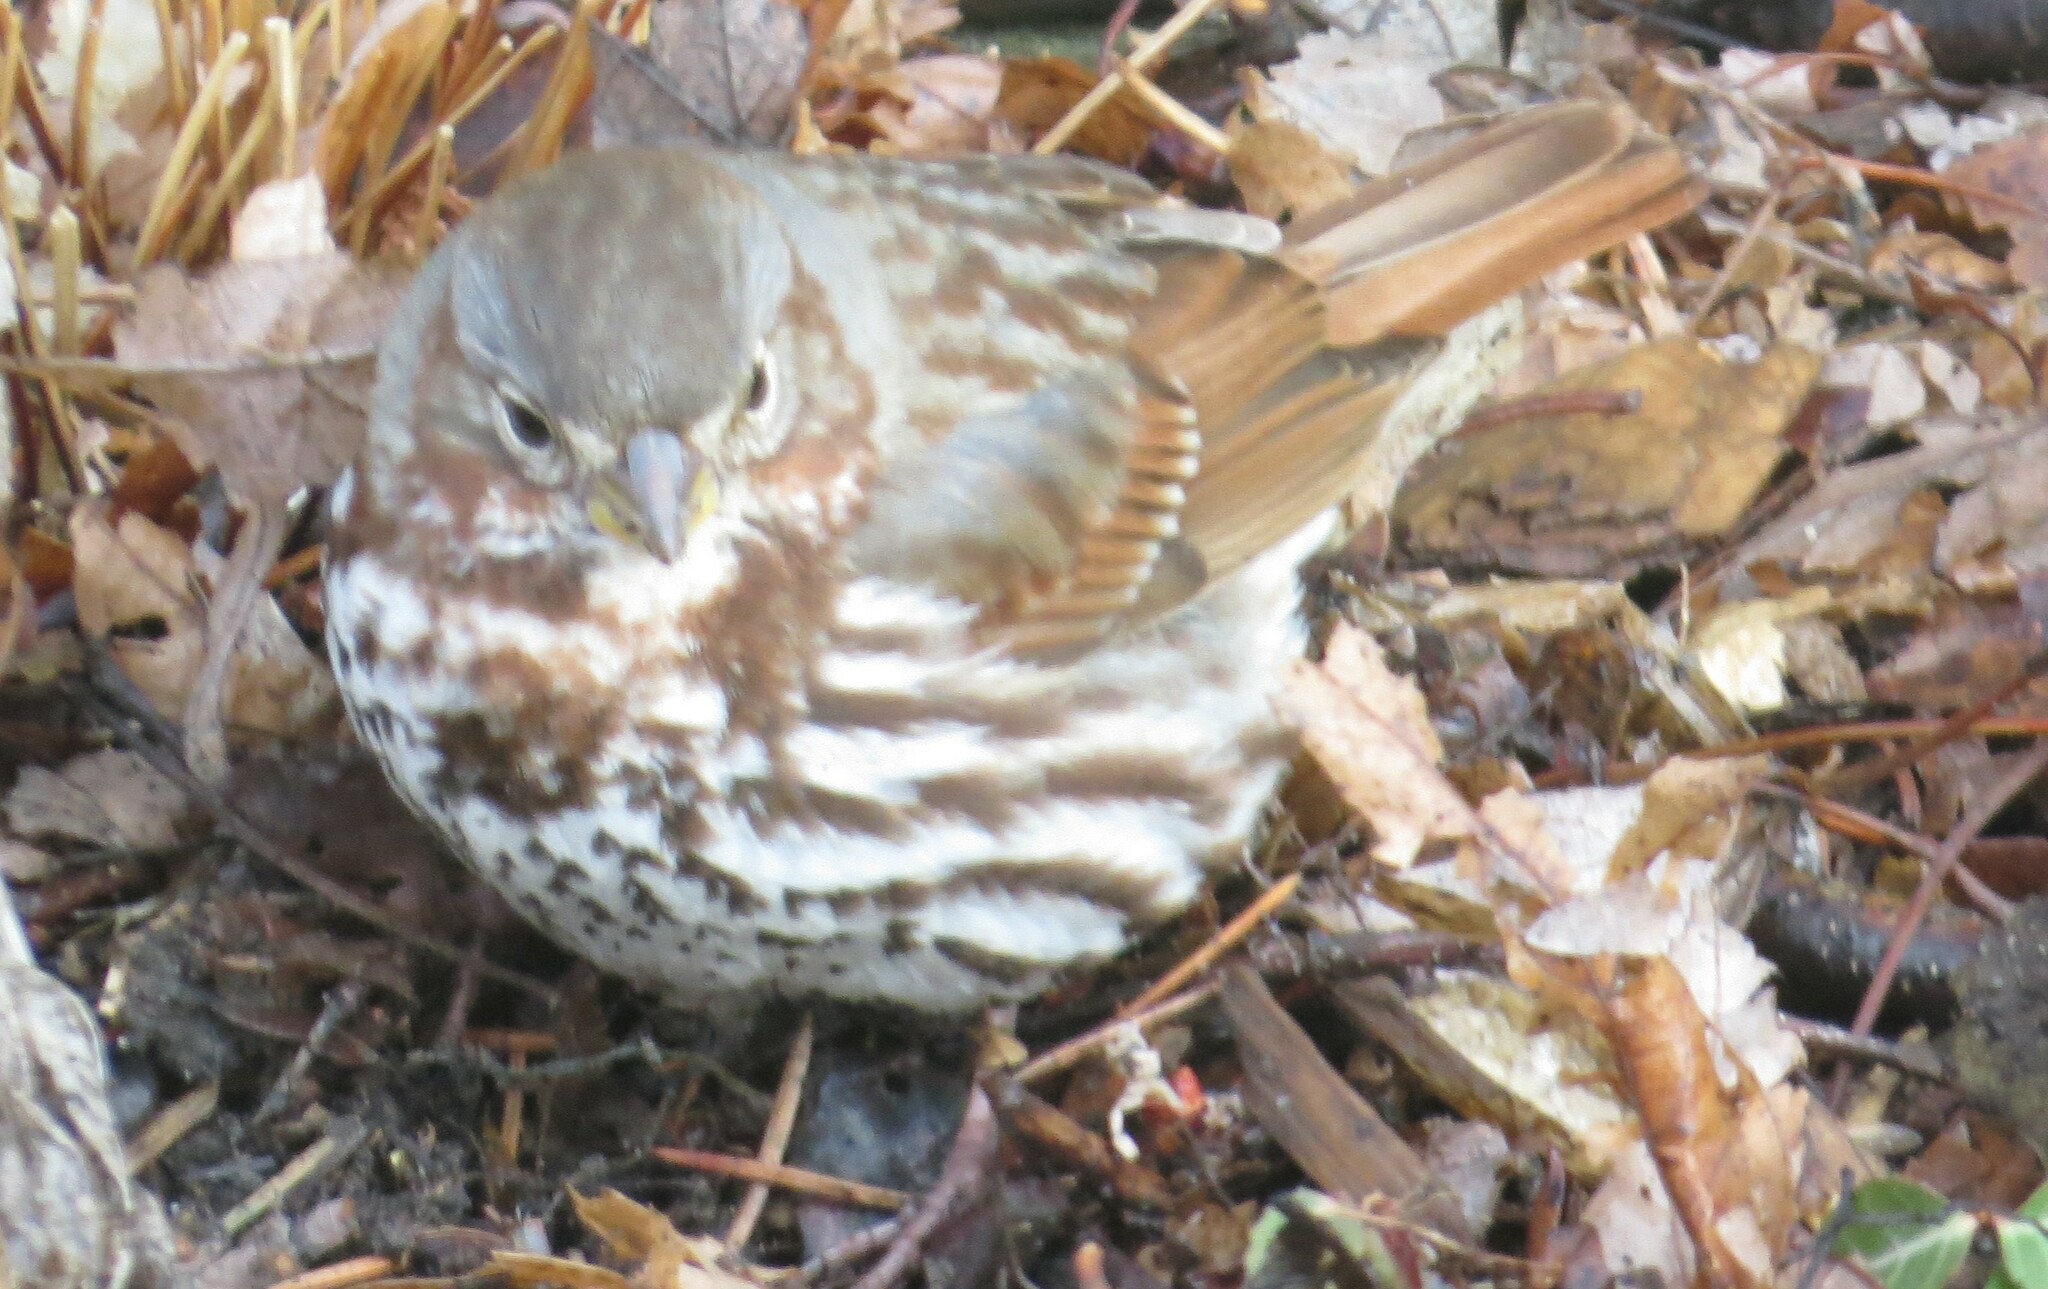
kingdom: Animalia
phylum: Chordata
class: Aves
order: Passeriformes
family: Passerellidae
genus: Passerella
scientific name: Passerella iliaca
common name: Fox sparrow
